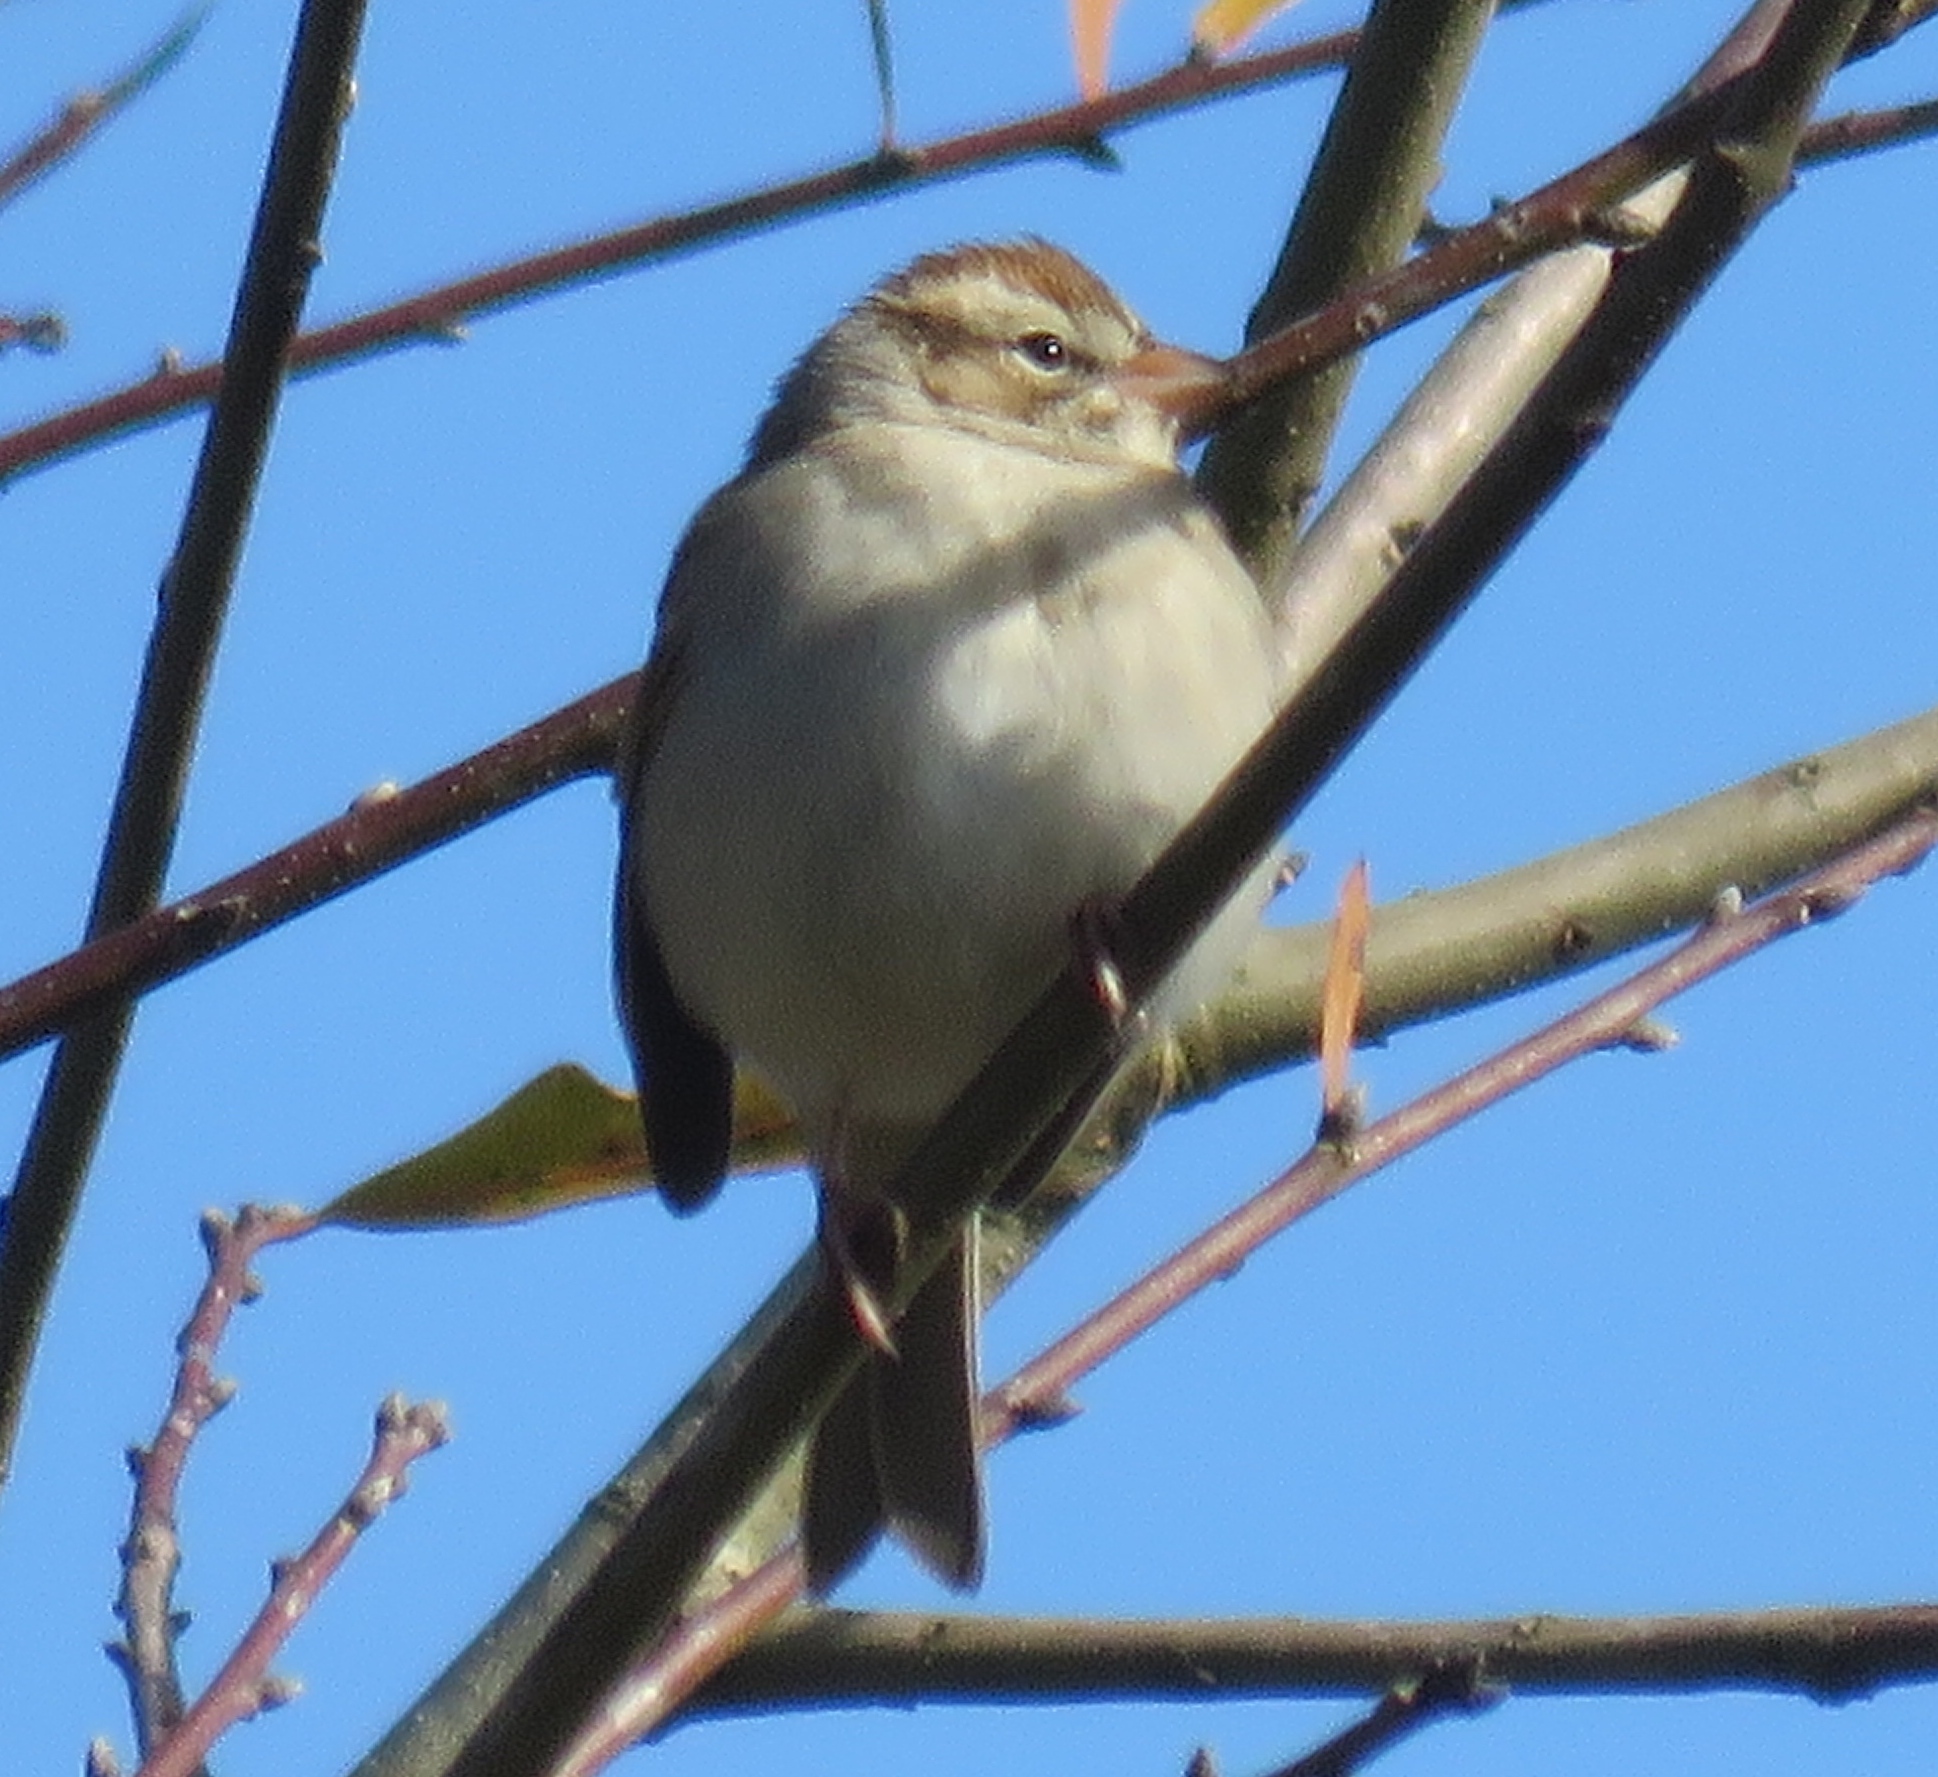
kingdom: Animalia
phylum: Chordata
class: Aves
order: Passeriformes
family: Passerellidae
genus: Spizella
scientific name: Spizella passerina
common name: Chipping sparrow
